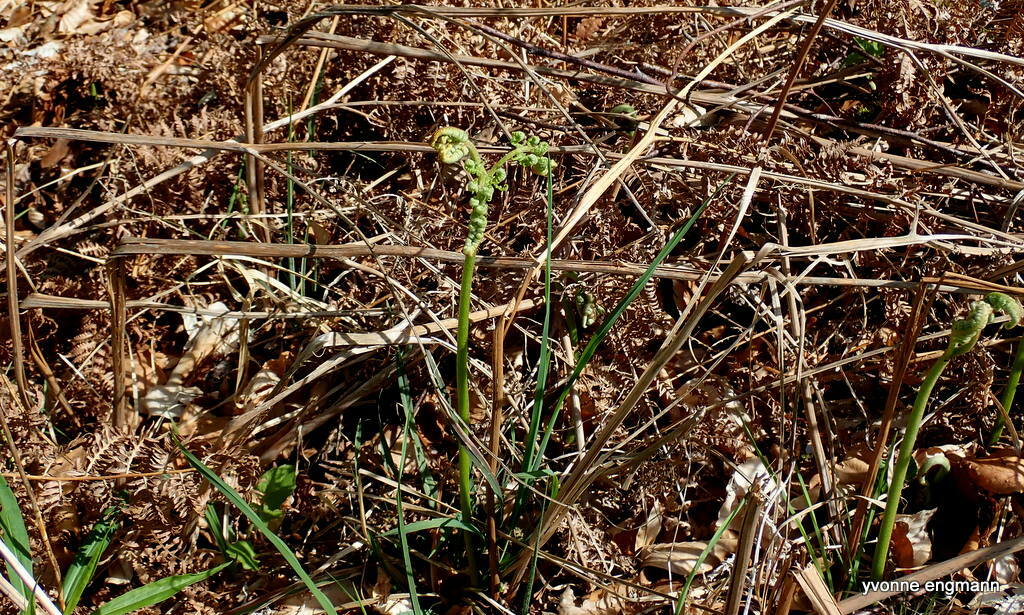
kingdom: Plantae
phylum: Tracheophyta
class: Polypodiopsida
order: Polypodiales
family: Dennstaedtiaceae
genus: Pteridium
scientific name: Pteridium aquilinum
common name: Bracken
